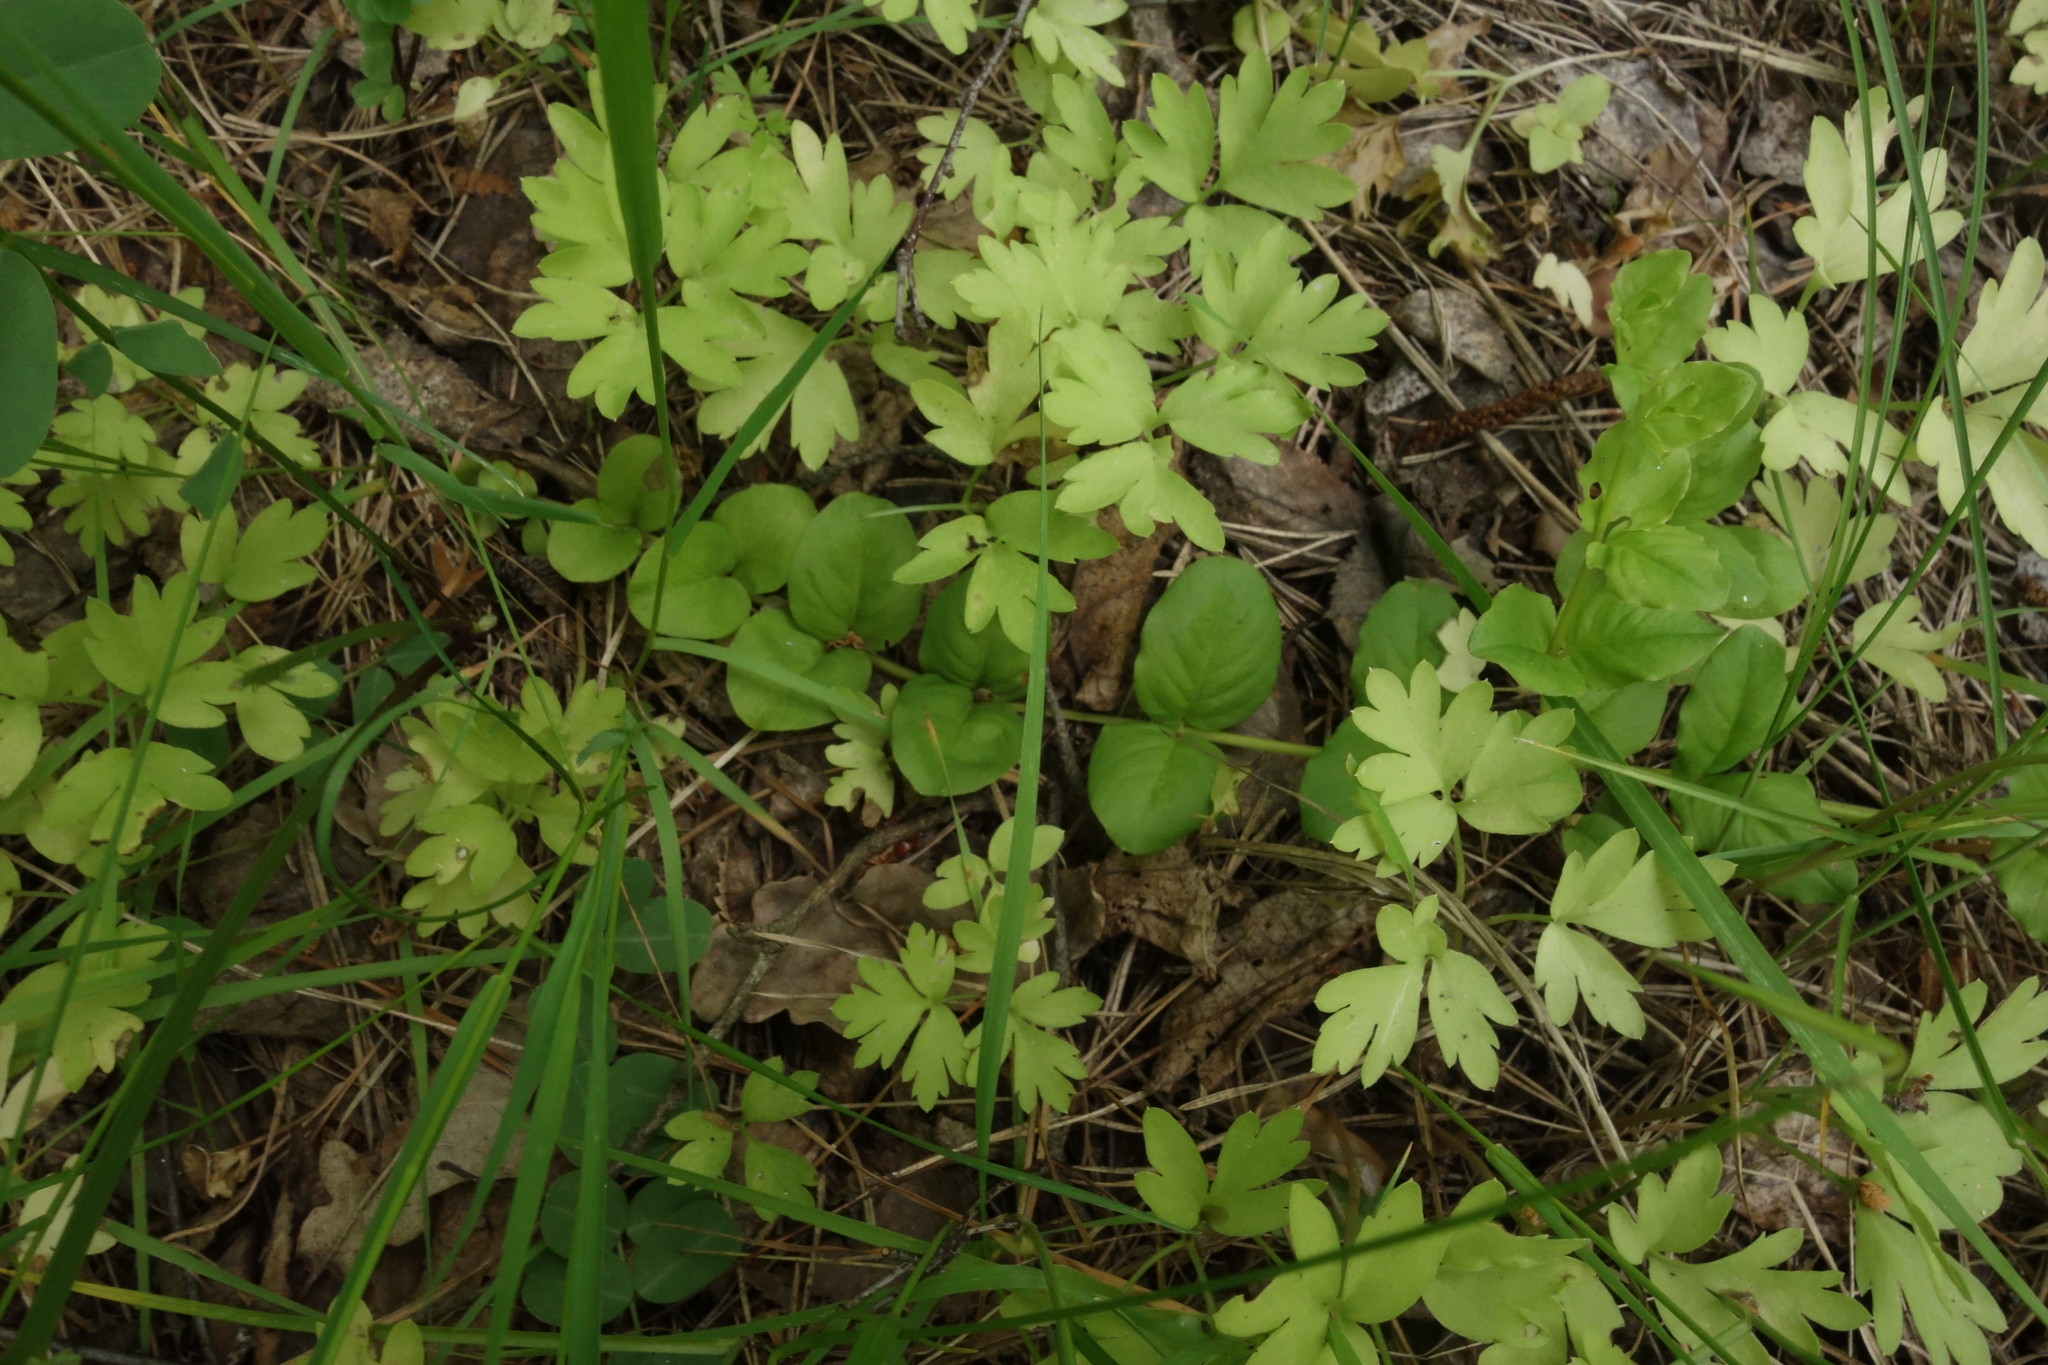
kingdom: Plantae
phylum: Tracheophyta
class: Magnoliopsida
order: Ericales
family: Primulaceae
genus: Lysimachia
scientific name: Lysimachia nummularia
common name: Moneywort
